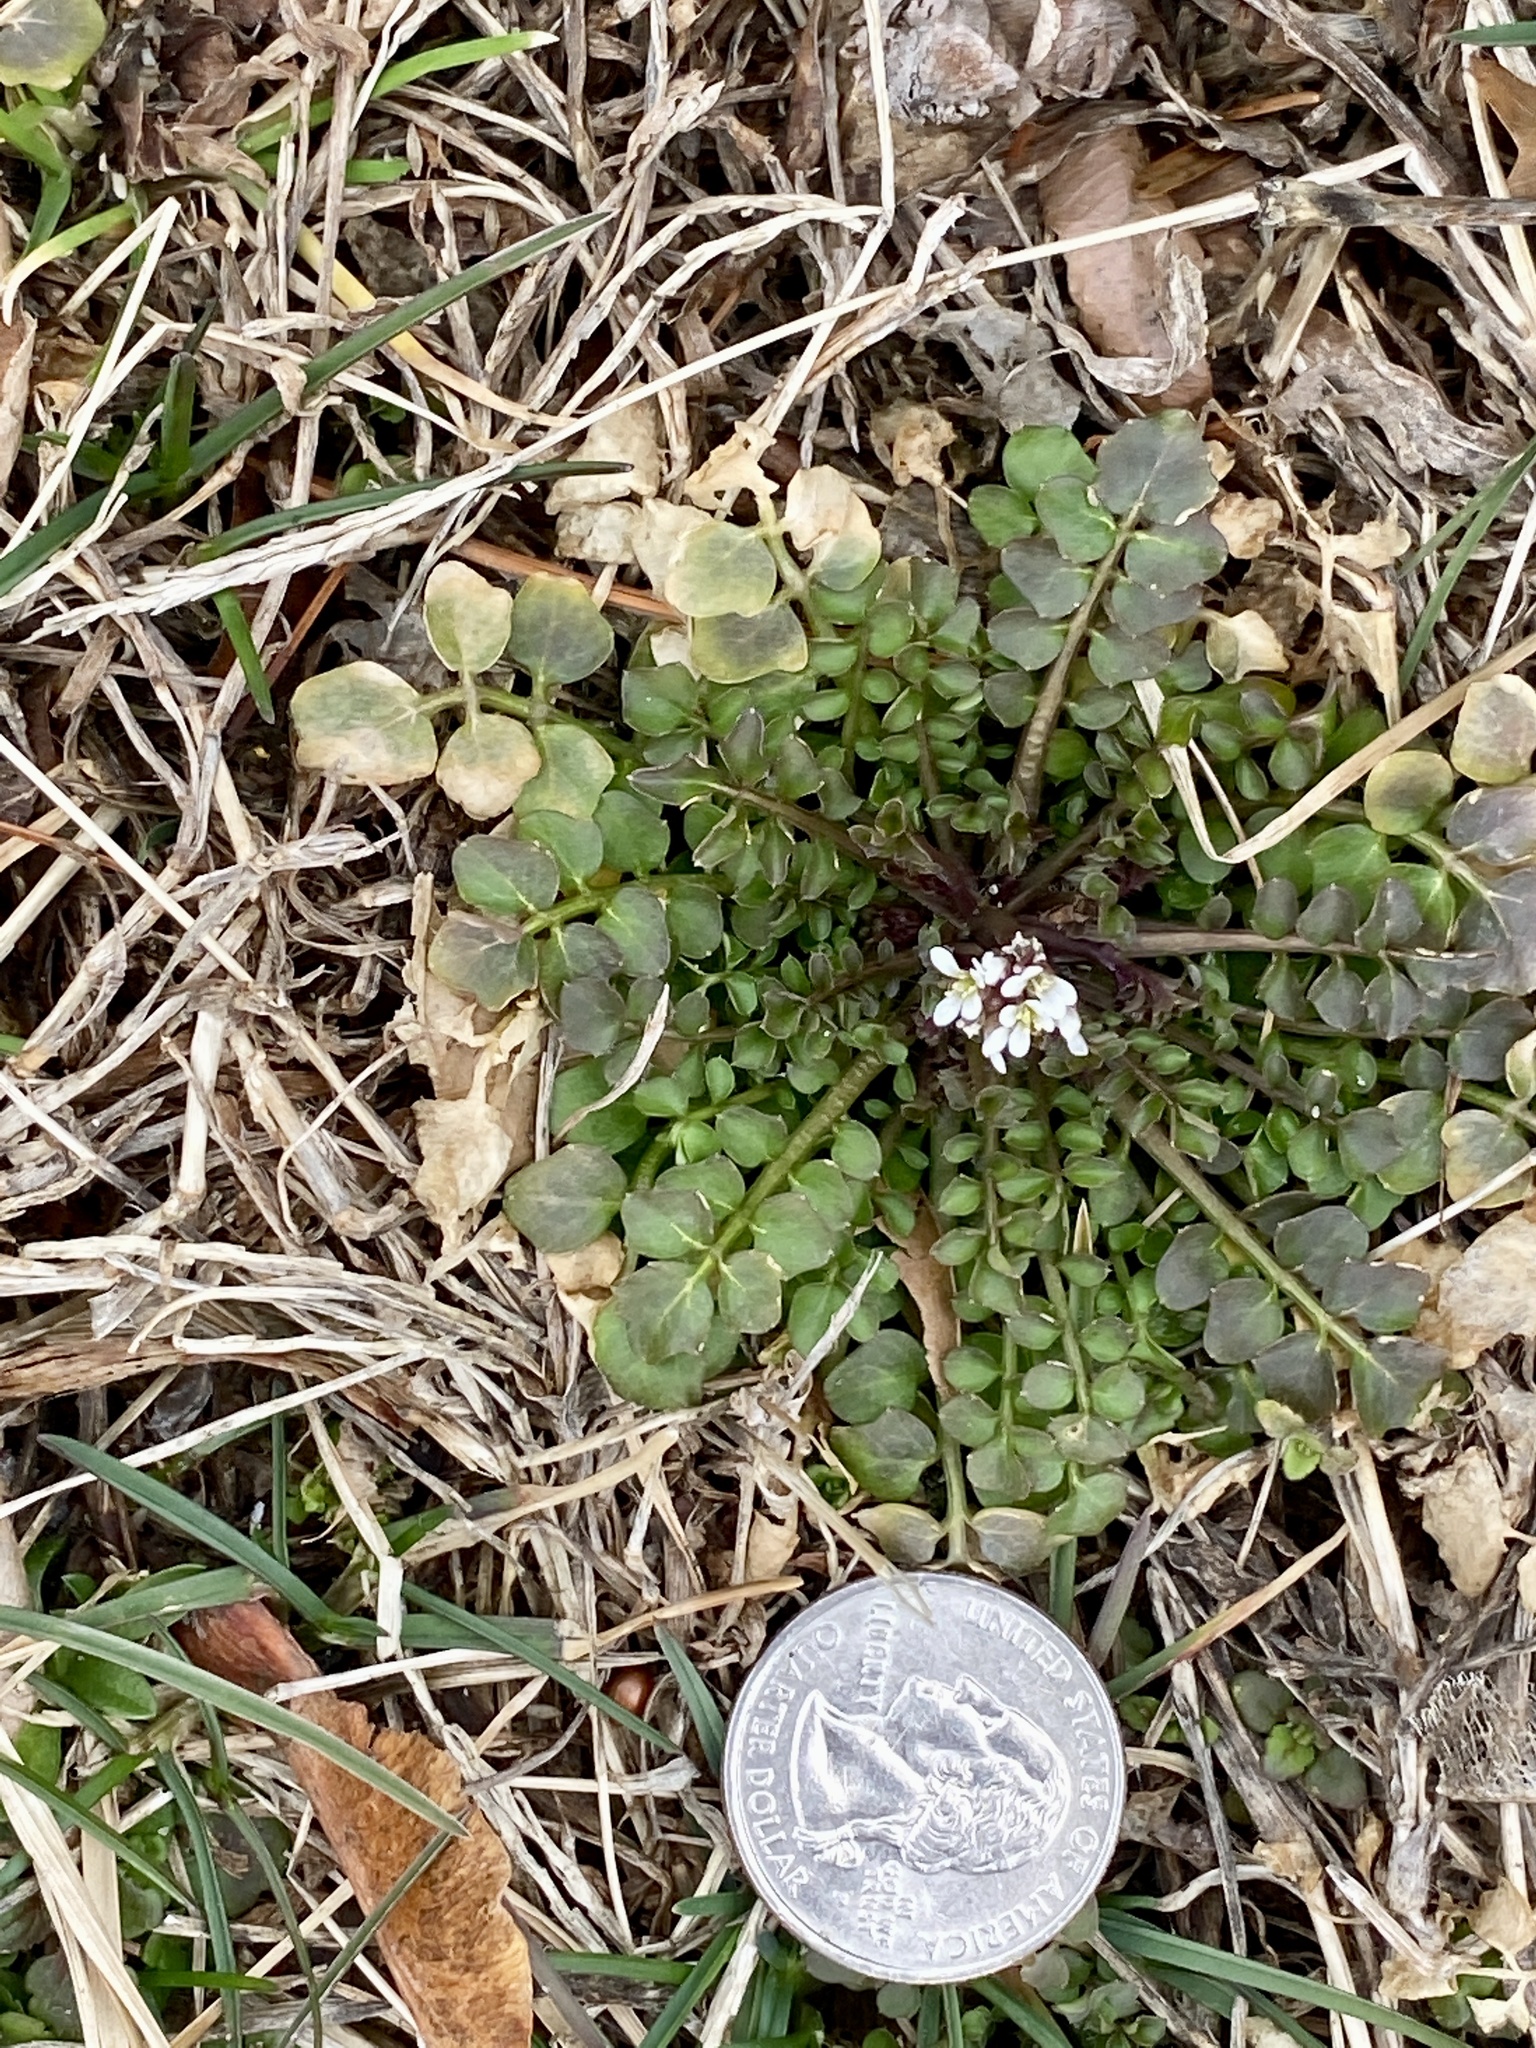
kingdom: Plantae
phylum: Tracheophyta
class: Magnoliopsida
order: Brassicales
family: Brassicaceae
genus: Cardamine
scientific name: Cardamine hirsuta
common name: Hairy bittercress
